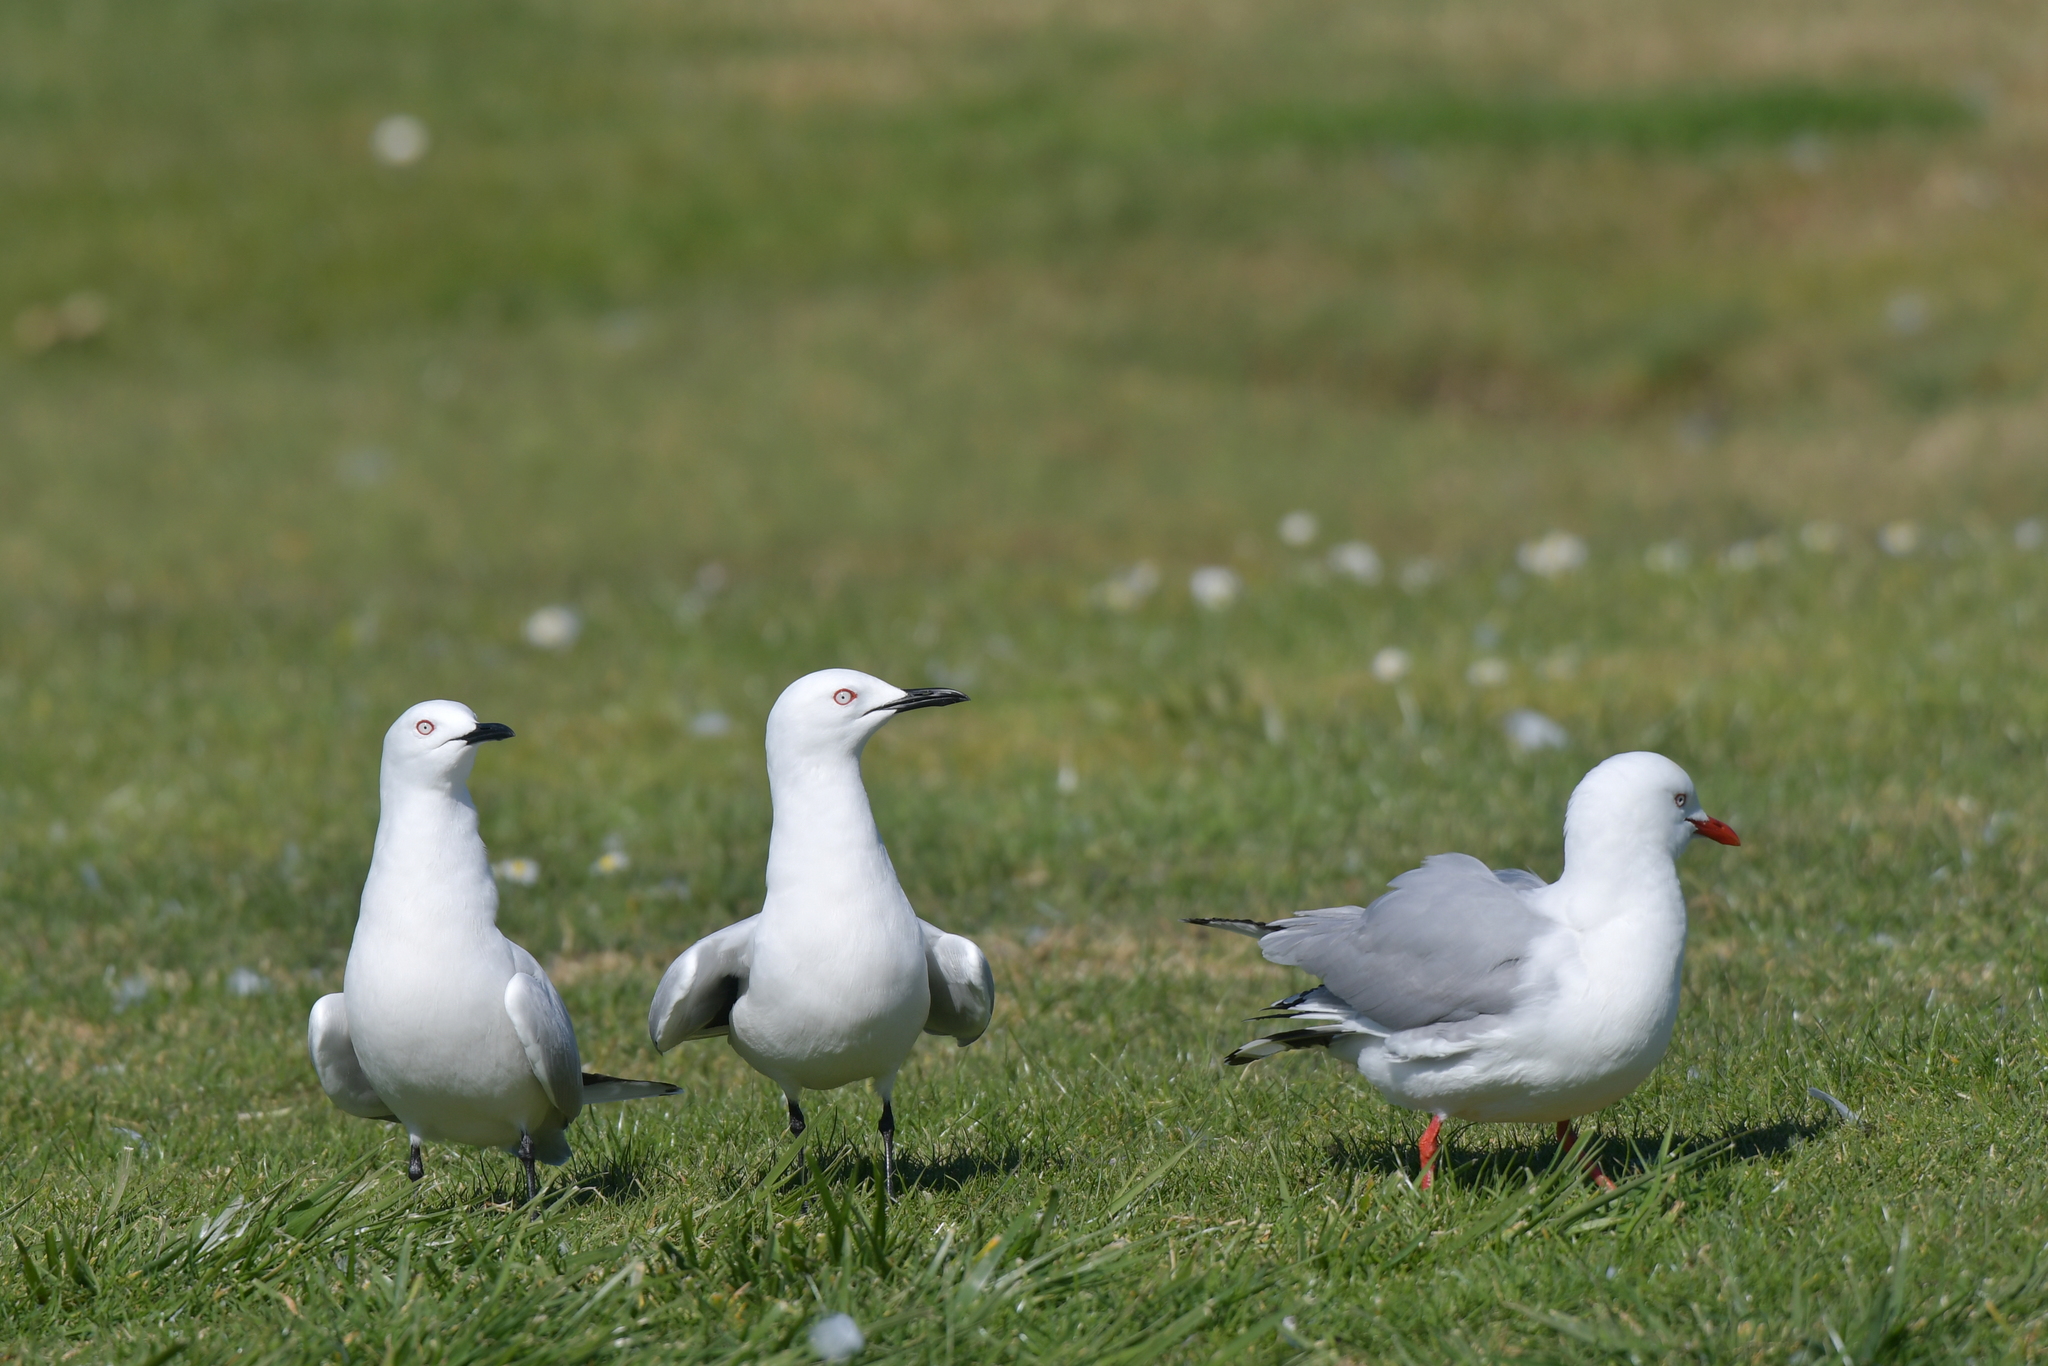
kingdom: Animalia
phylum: Chordata
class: Aves
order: Charadriiformes
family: Laridae
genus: Chroicocephalus
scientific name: Chroicocephalus bulleri
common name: Black-billed gull
